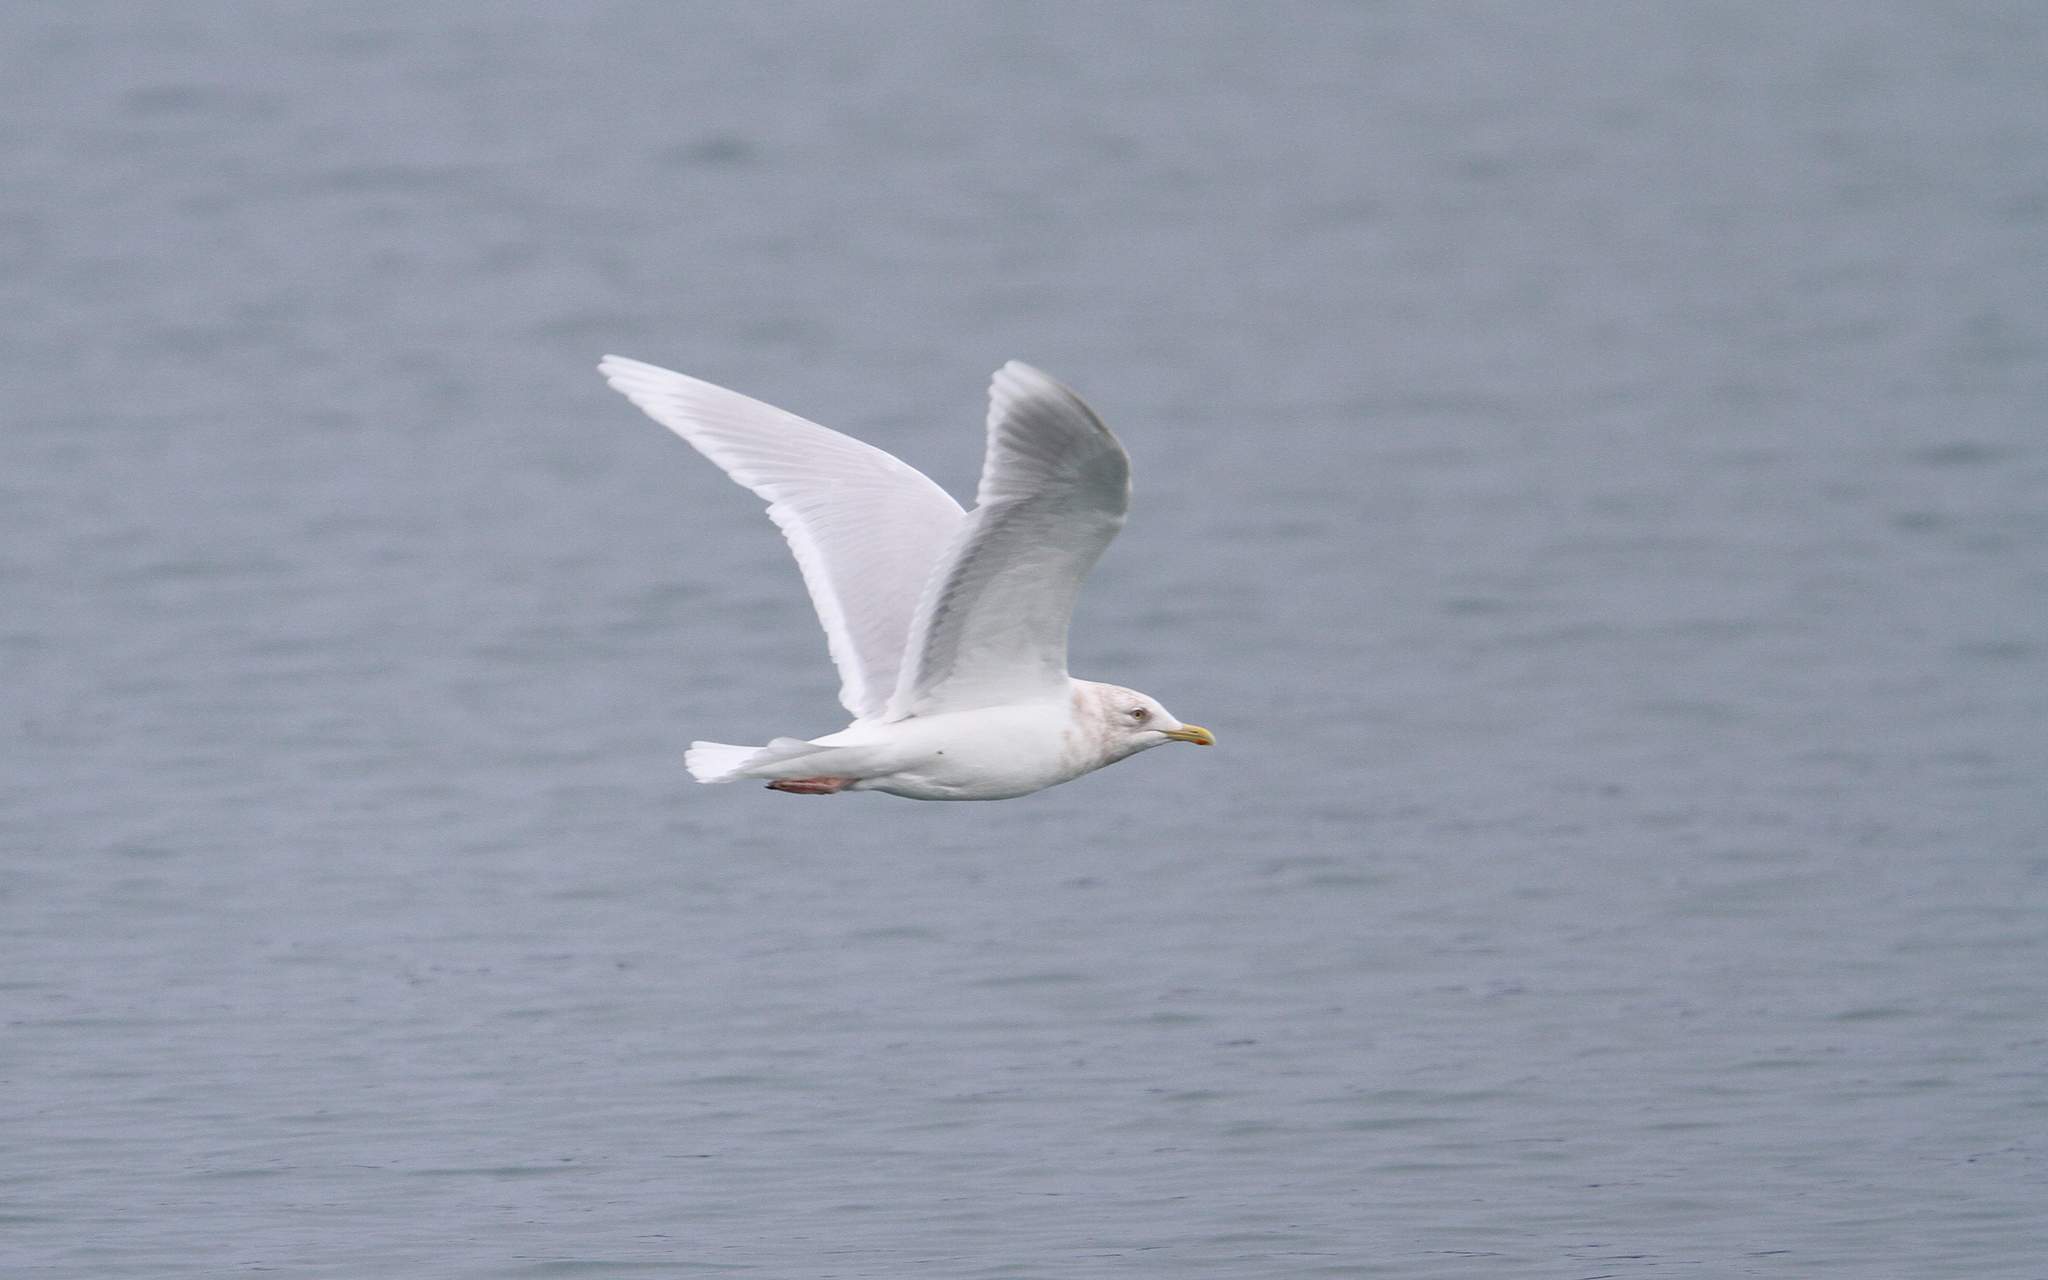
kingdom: Animalia
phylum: Chordata
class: Aves
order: Charadriiformes
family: Laridae
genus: Larus
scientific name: Larus glaucoides
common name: Iceland gull
